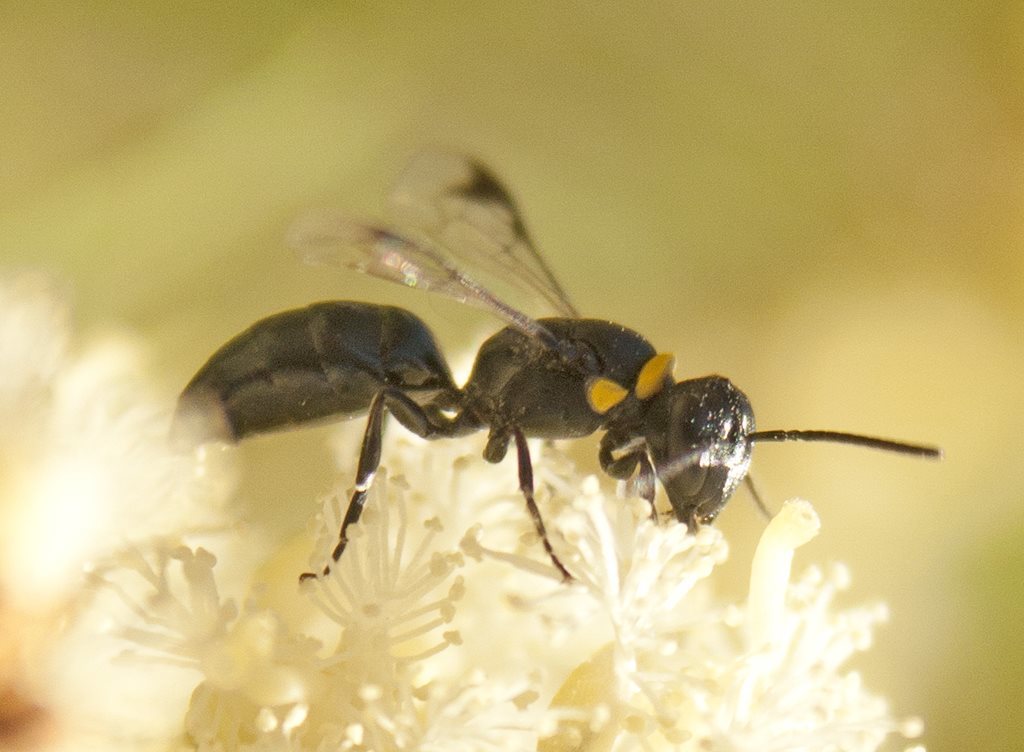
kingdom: Animalia
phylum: Arthropoda
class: Insecta
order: Hymenoptera
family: Colletidae
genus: Hylaeus
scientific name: Hylaeus primulipictus
